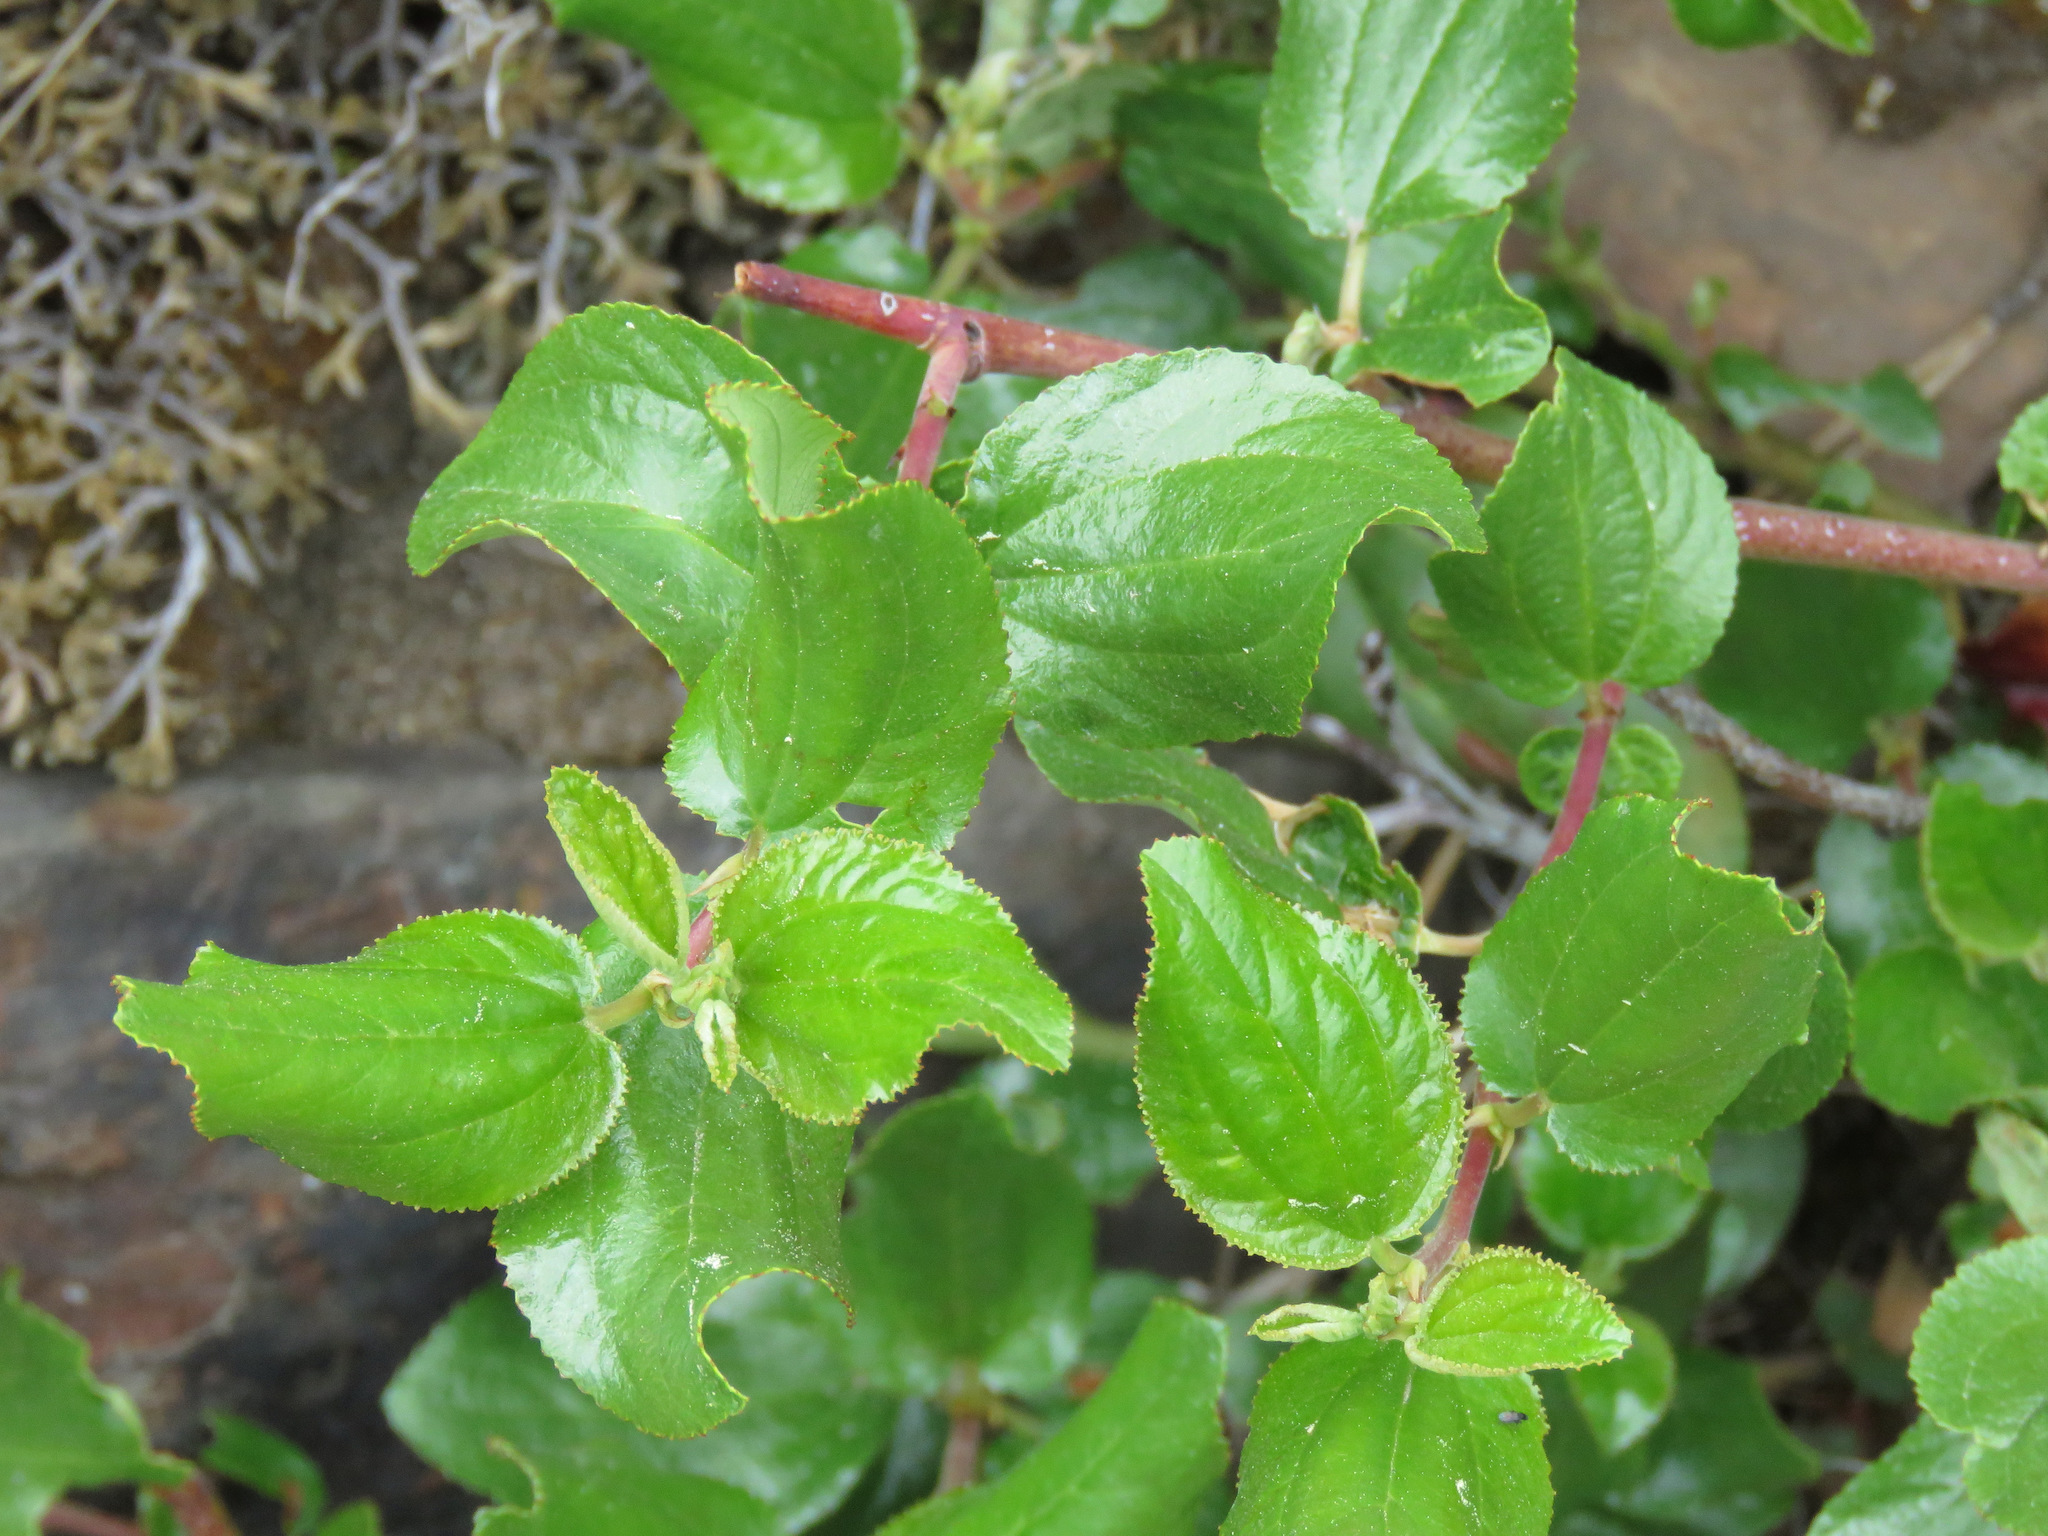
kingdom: Plantae
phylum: Tracheophyta
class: Magnoliopsida
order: Rosales
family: Rhamnaceae
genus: Ceanothus
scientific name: Ceanothus velutinus
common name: Snowbrush
